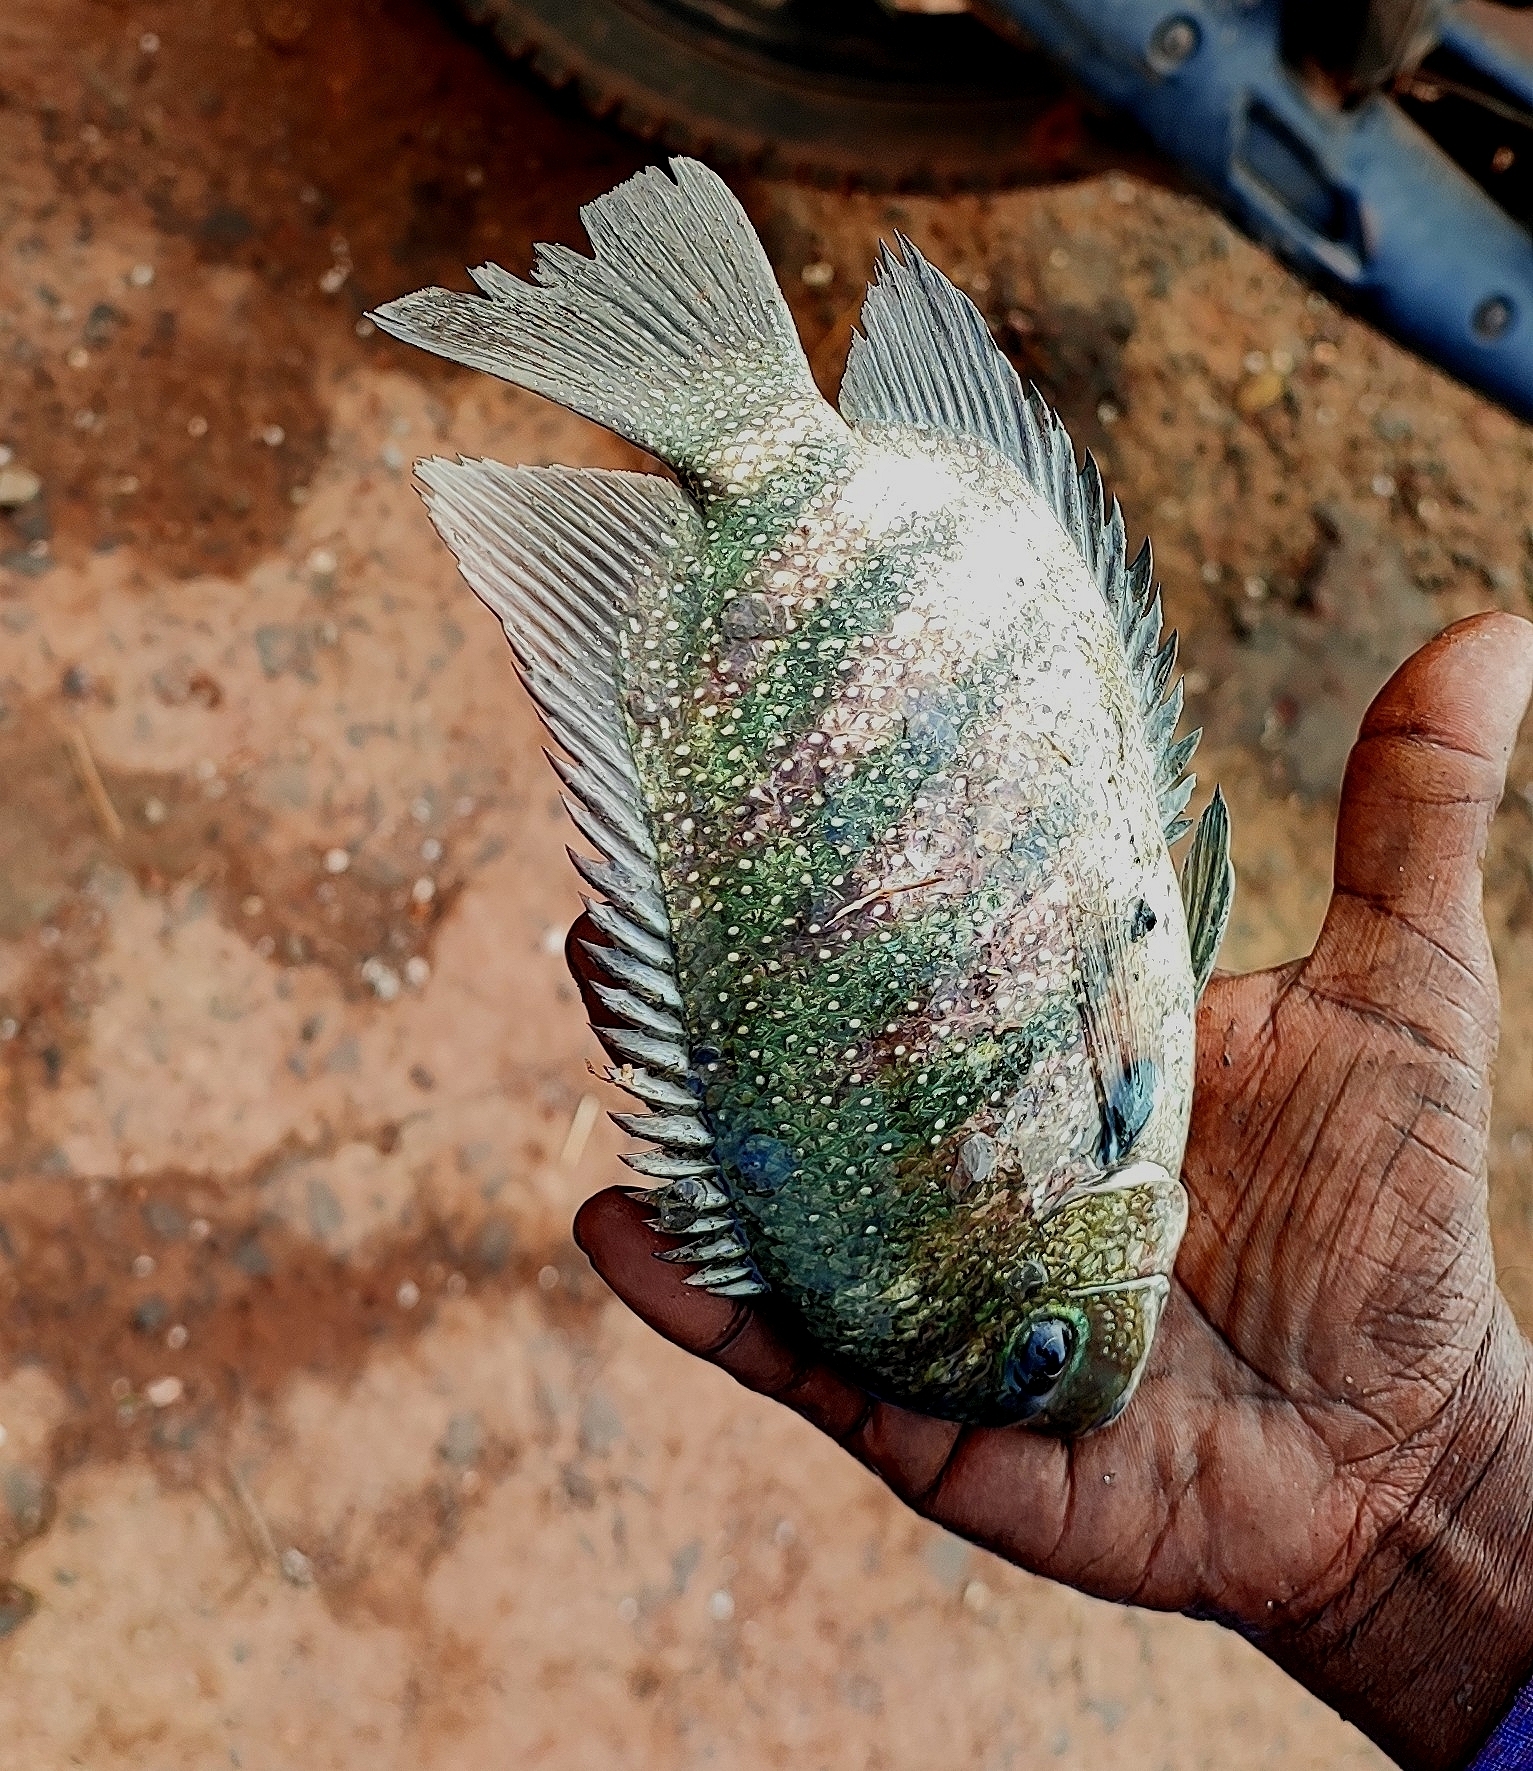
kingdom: Animalia
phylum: Chordata
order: Perciformes
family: Cichlidae
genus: Etroplus
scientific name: Etroplus suratensis
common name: Green chromide
